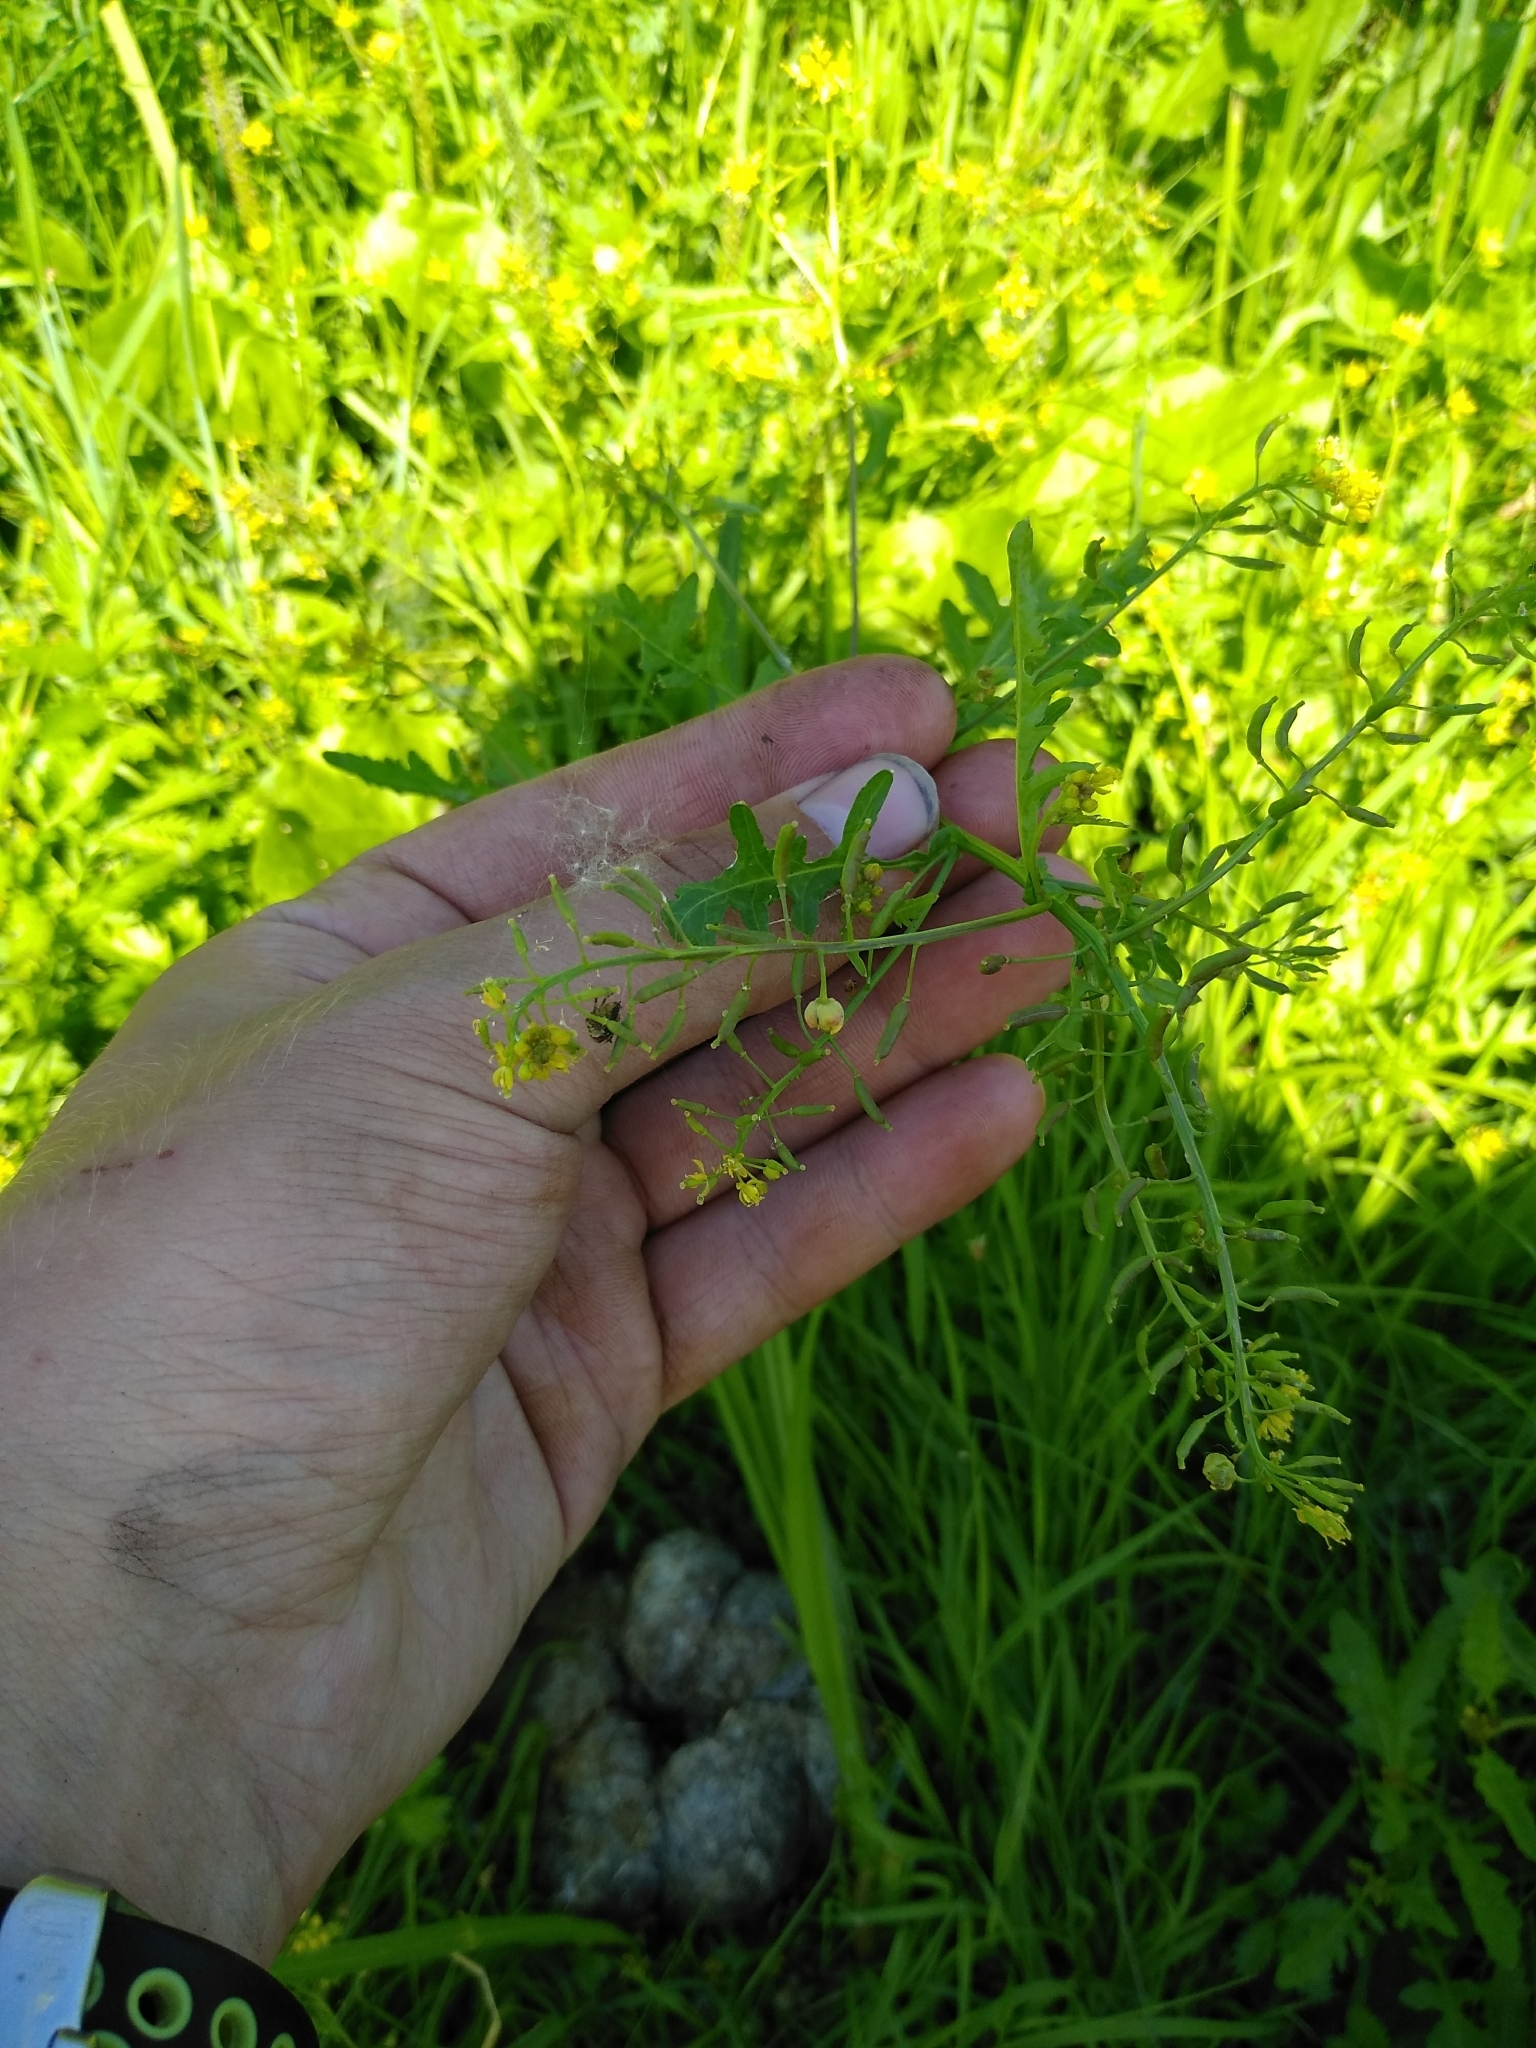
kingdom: Plantae
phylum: Tracheophyta
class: Magnoliopsida
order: Brassicales
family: Brassicaceae
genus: Rorippa
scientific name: Rorippa palustris
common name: Marsh yellow-cress
